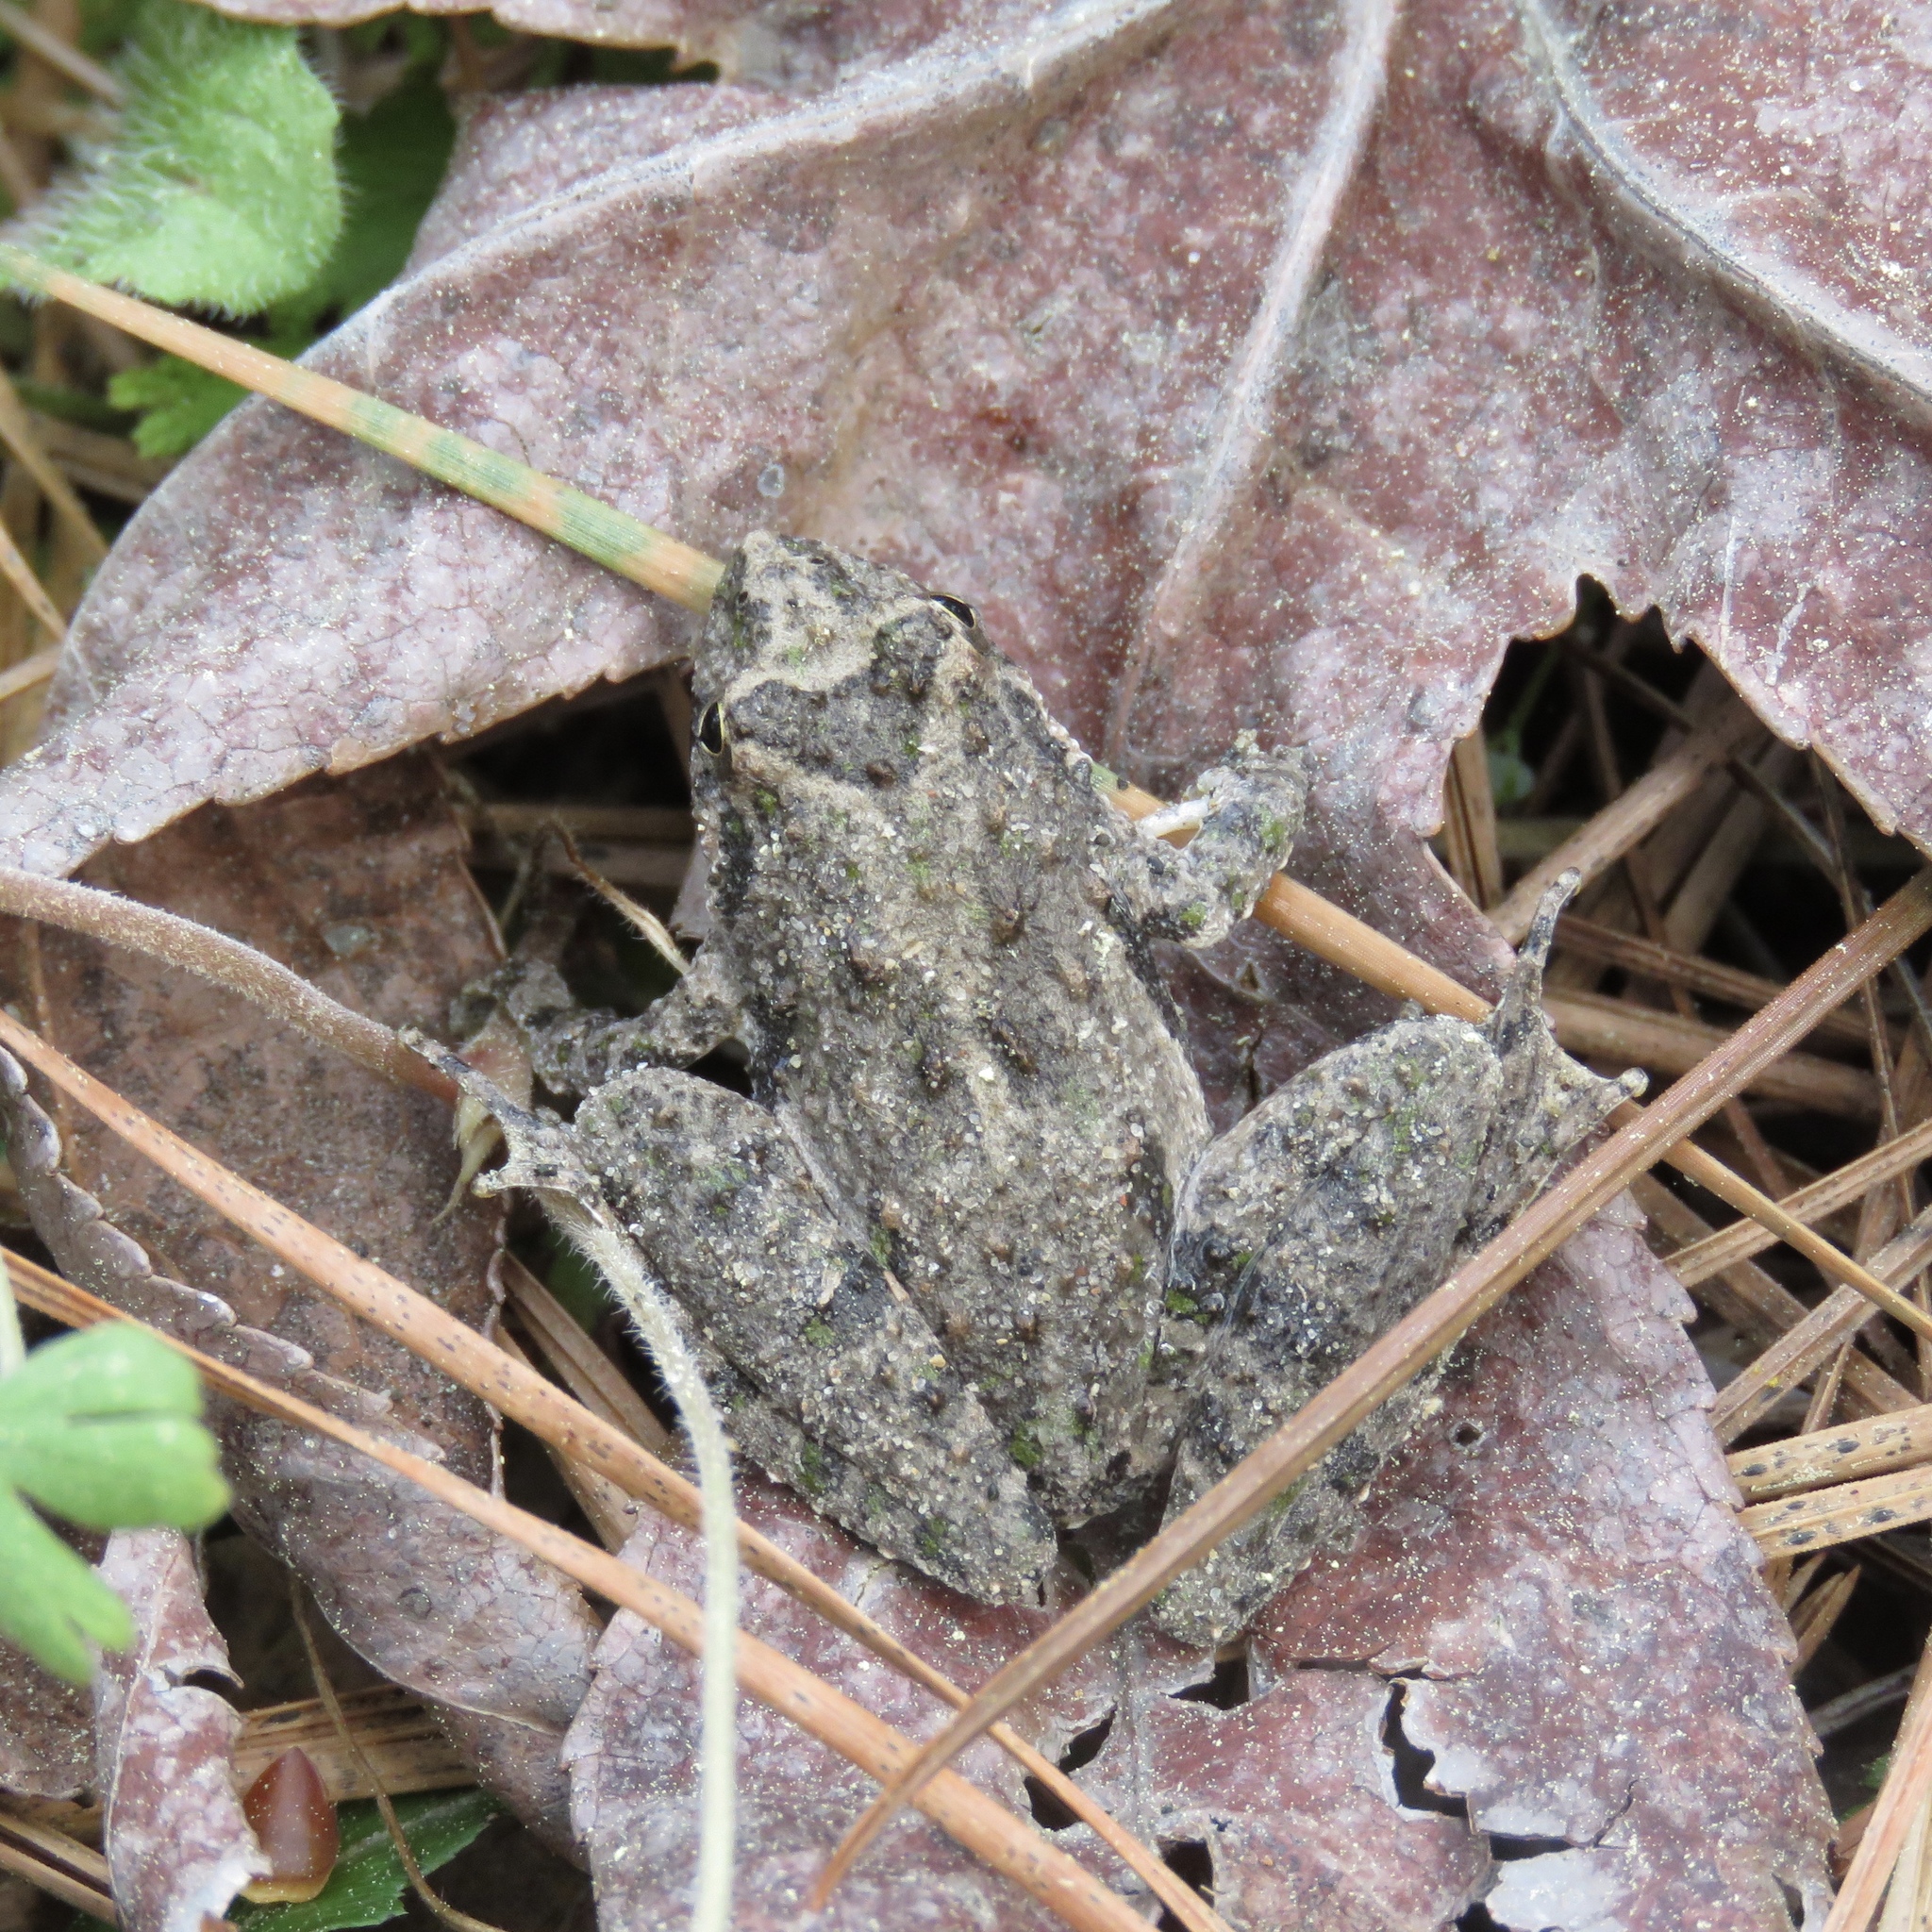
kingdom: Animalia
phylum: Chordata
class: Amphibia
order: Anura
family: Hylidae
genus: Acris
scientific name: Acris blanchardi
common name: Blanchard's cricket frog
